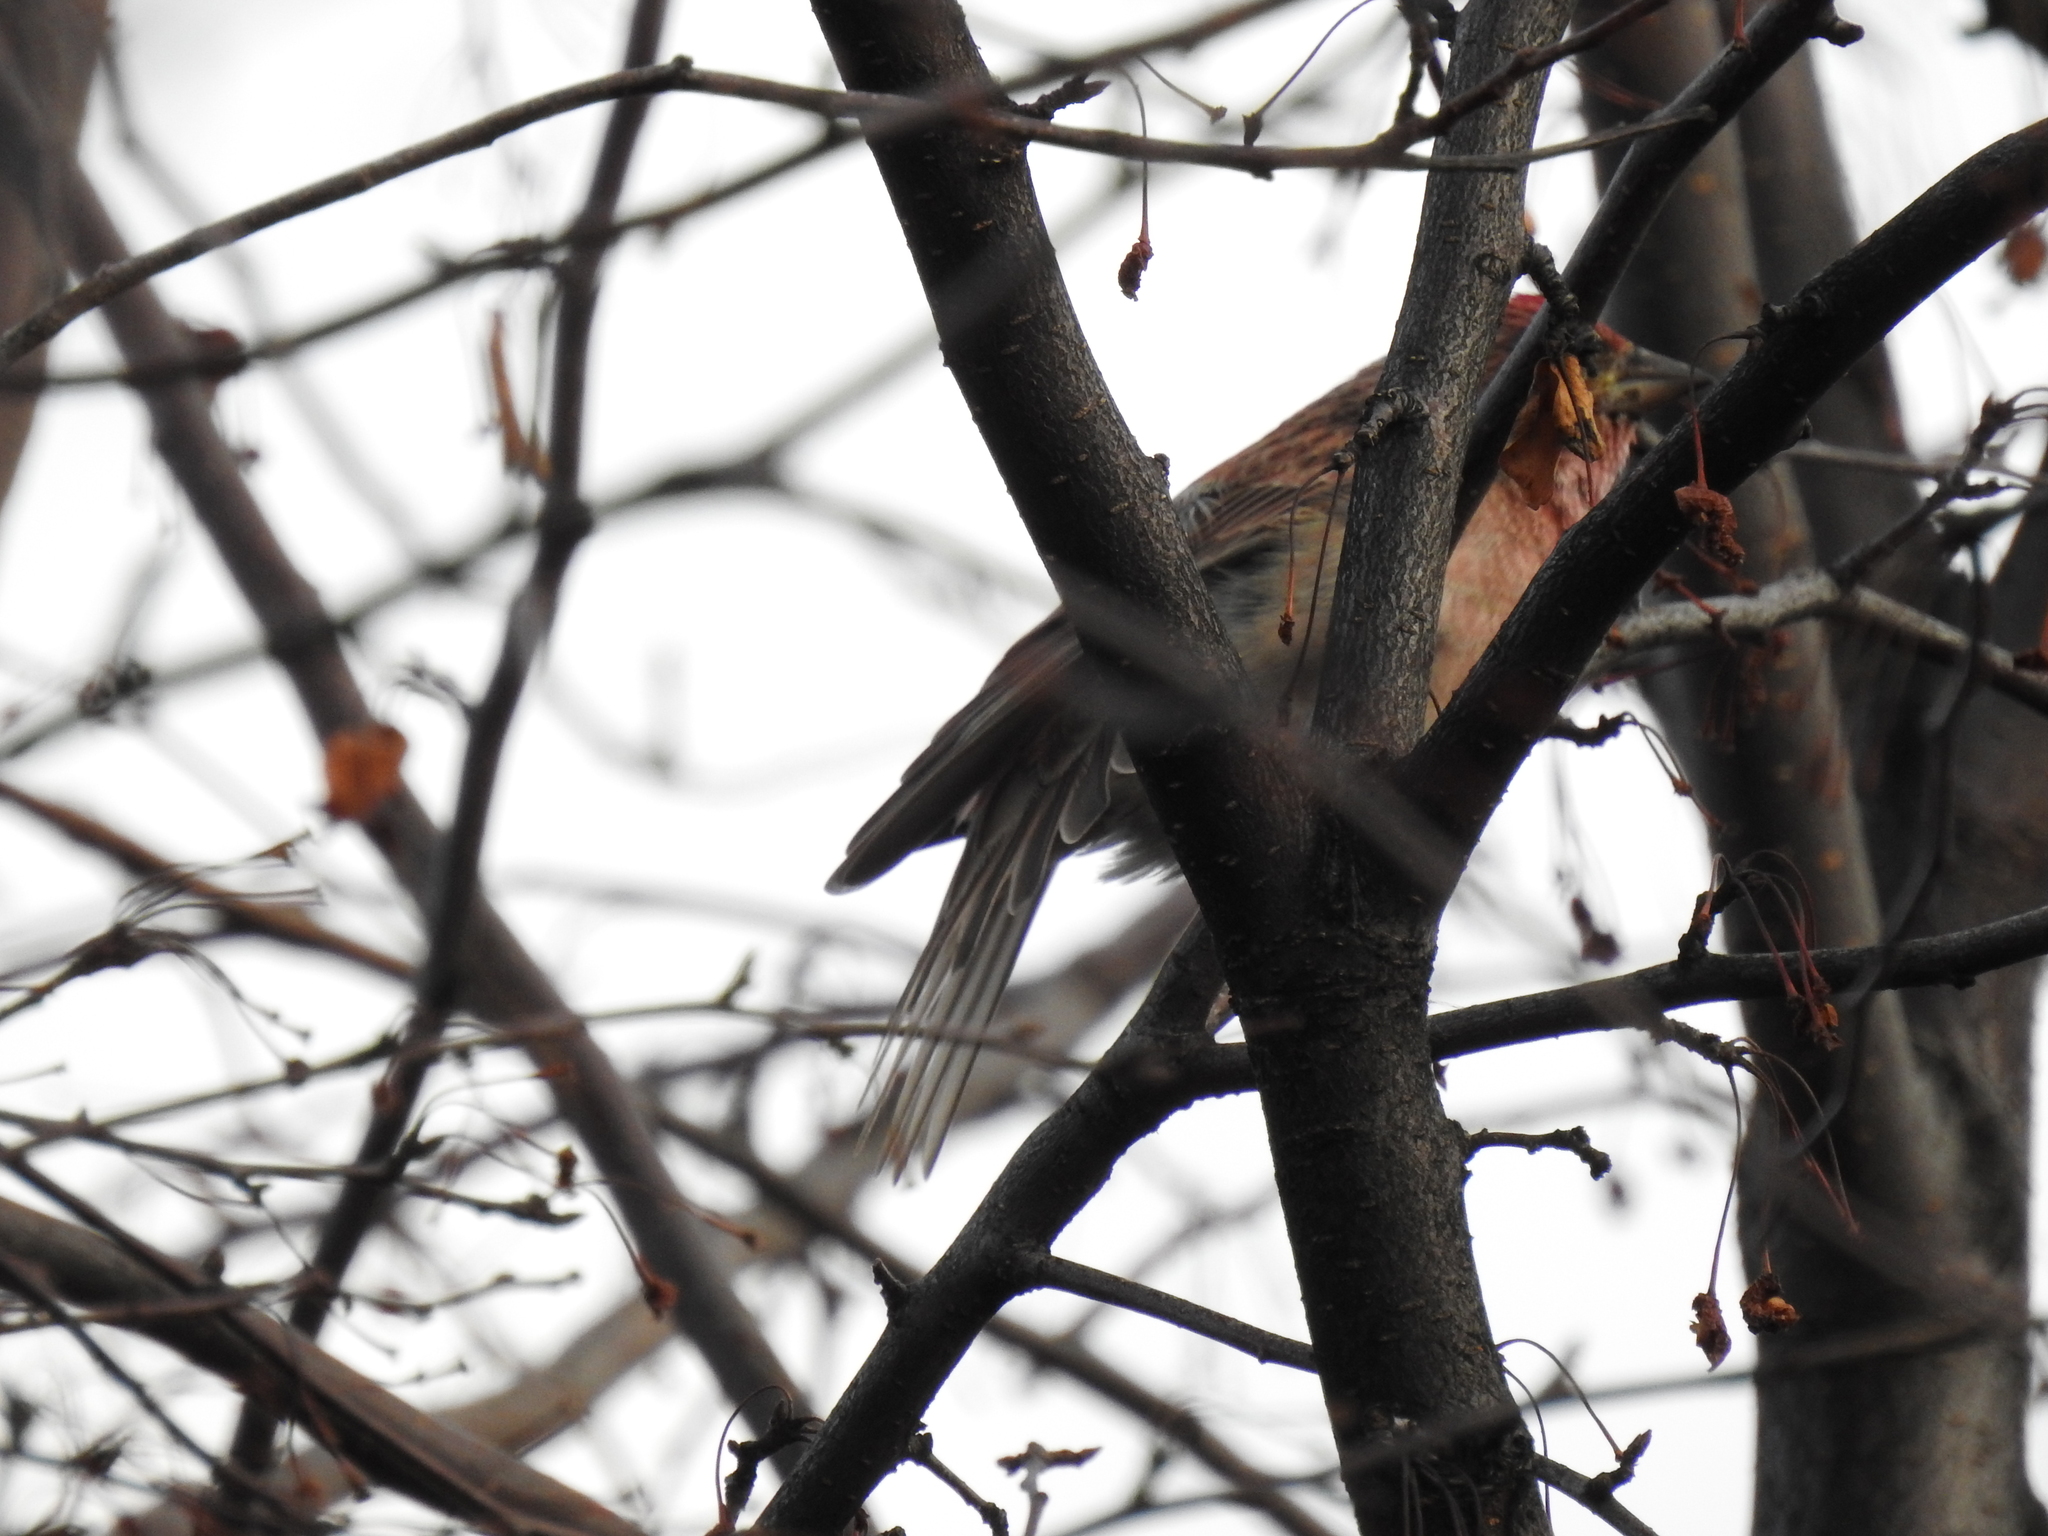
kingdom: Animalia
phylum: Chordata
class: Aves
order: Passeriformes
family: Fringillidae
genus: Haemorhous
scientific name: Haemorhous cassinii
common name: Cassin's finch
